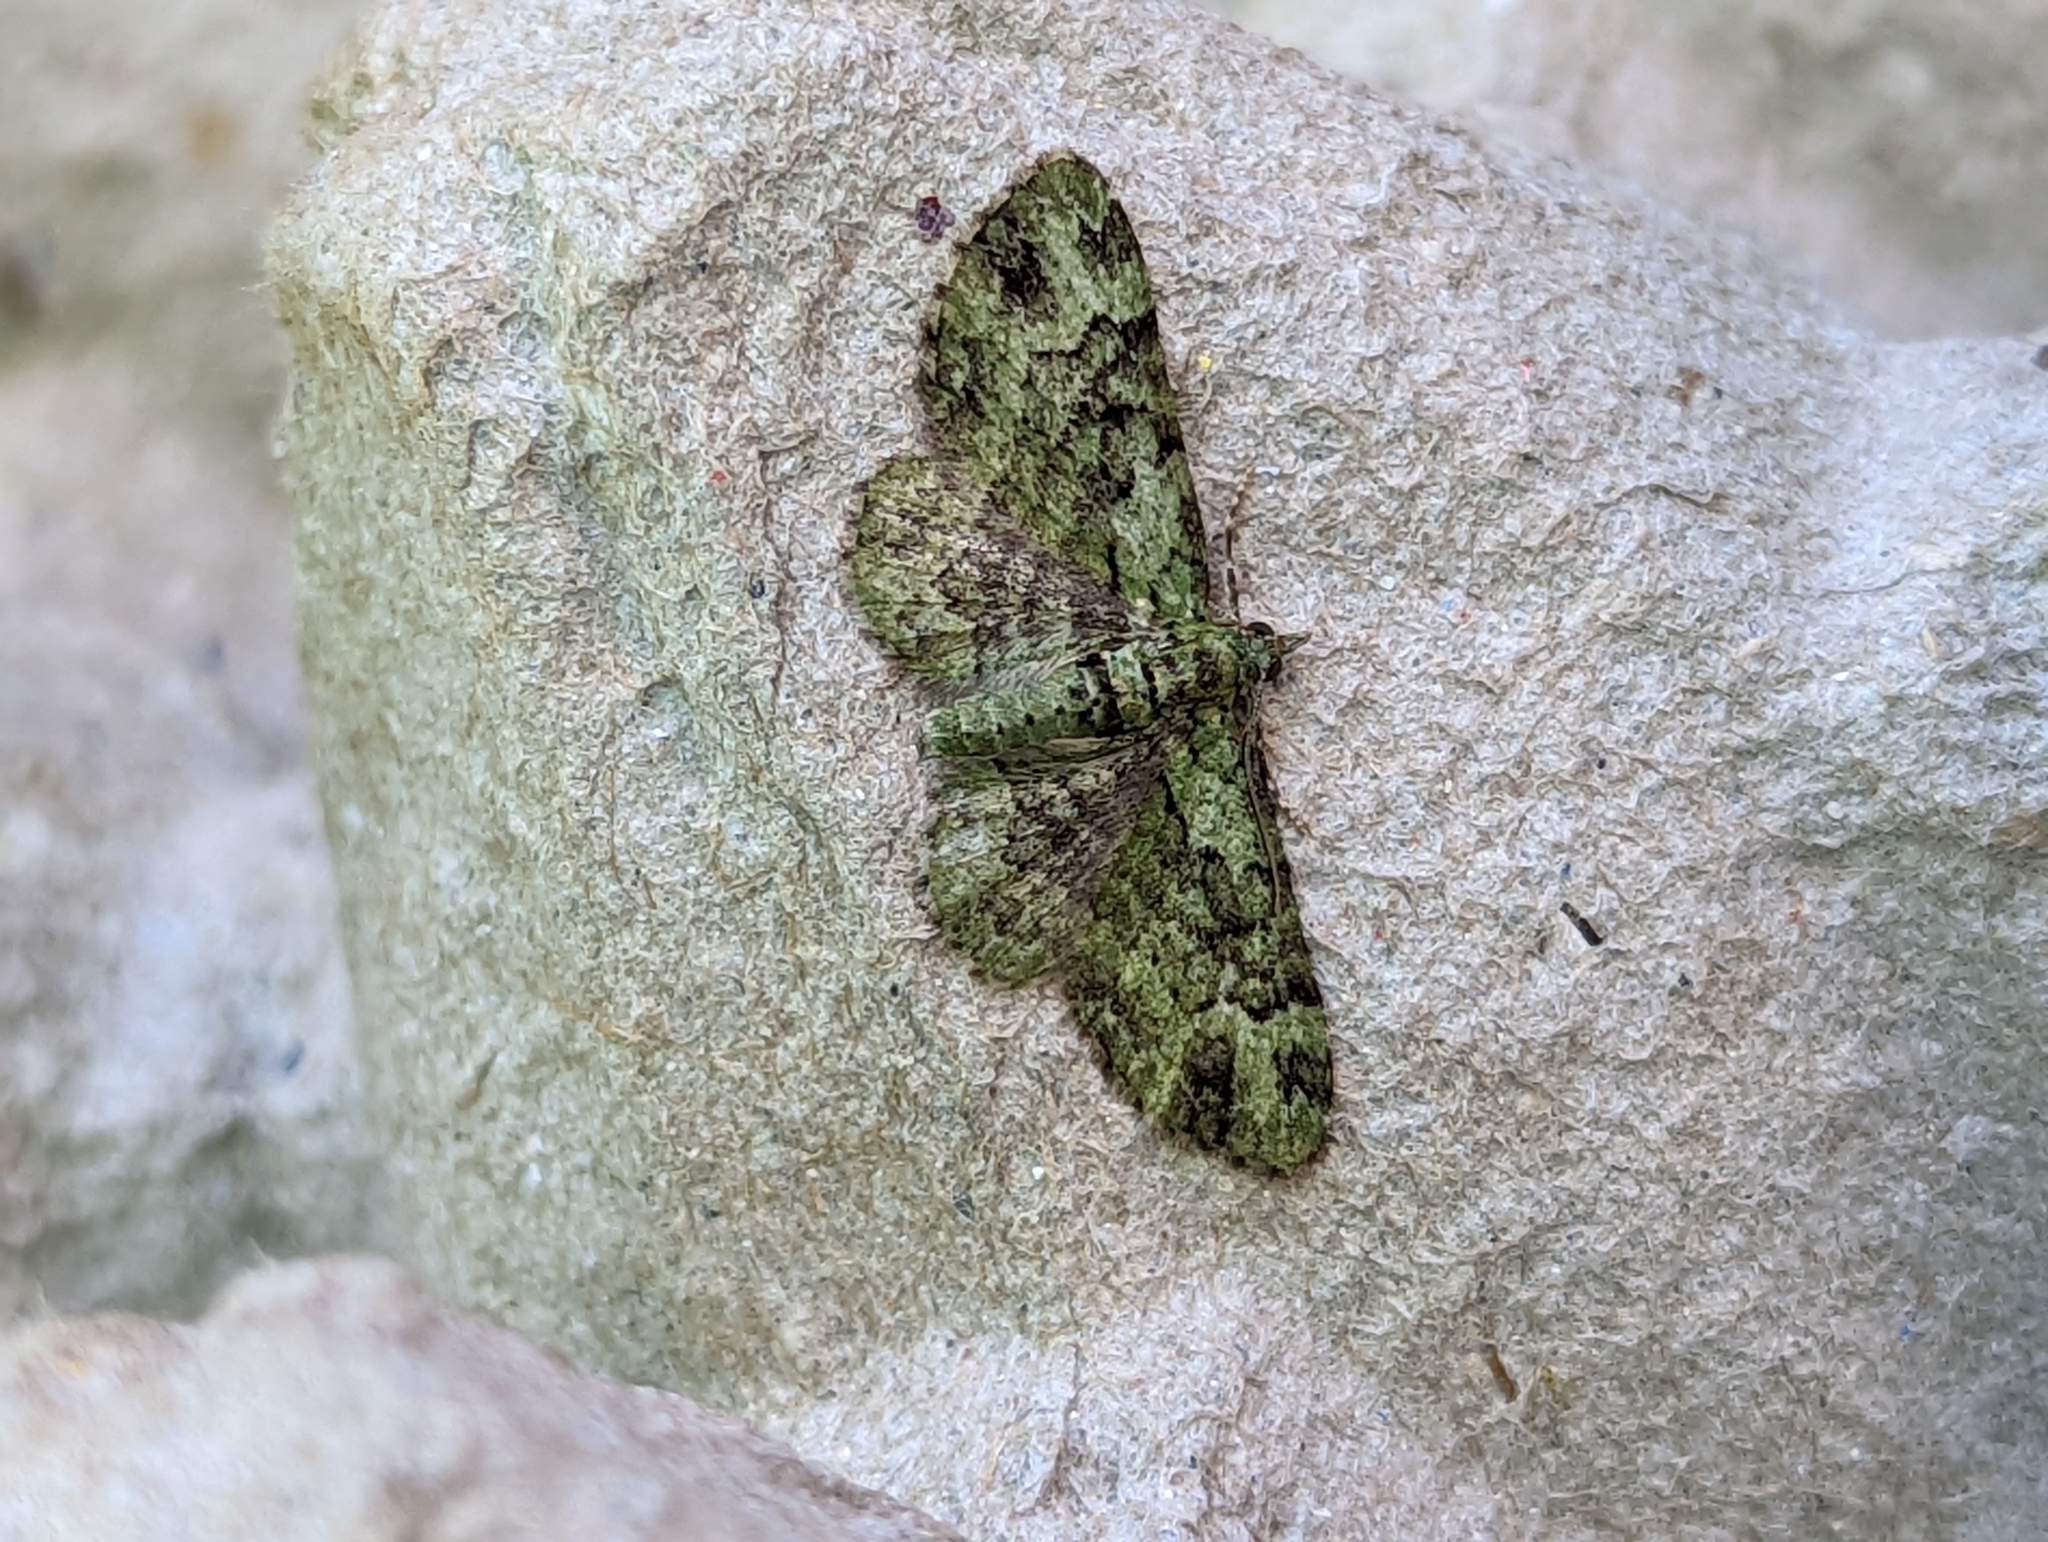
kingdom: Animalia
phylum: Arthropoda
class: Insecta
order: Lepidoptera
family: Geometridae
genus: Pasiphila
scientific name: Pasiphila rectangulata
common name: Green pug
